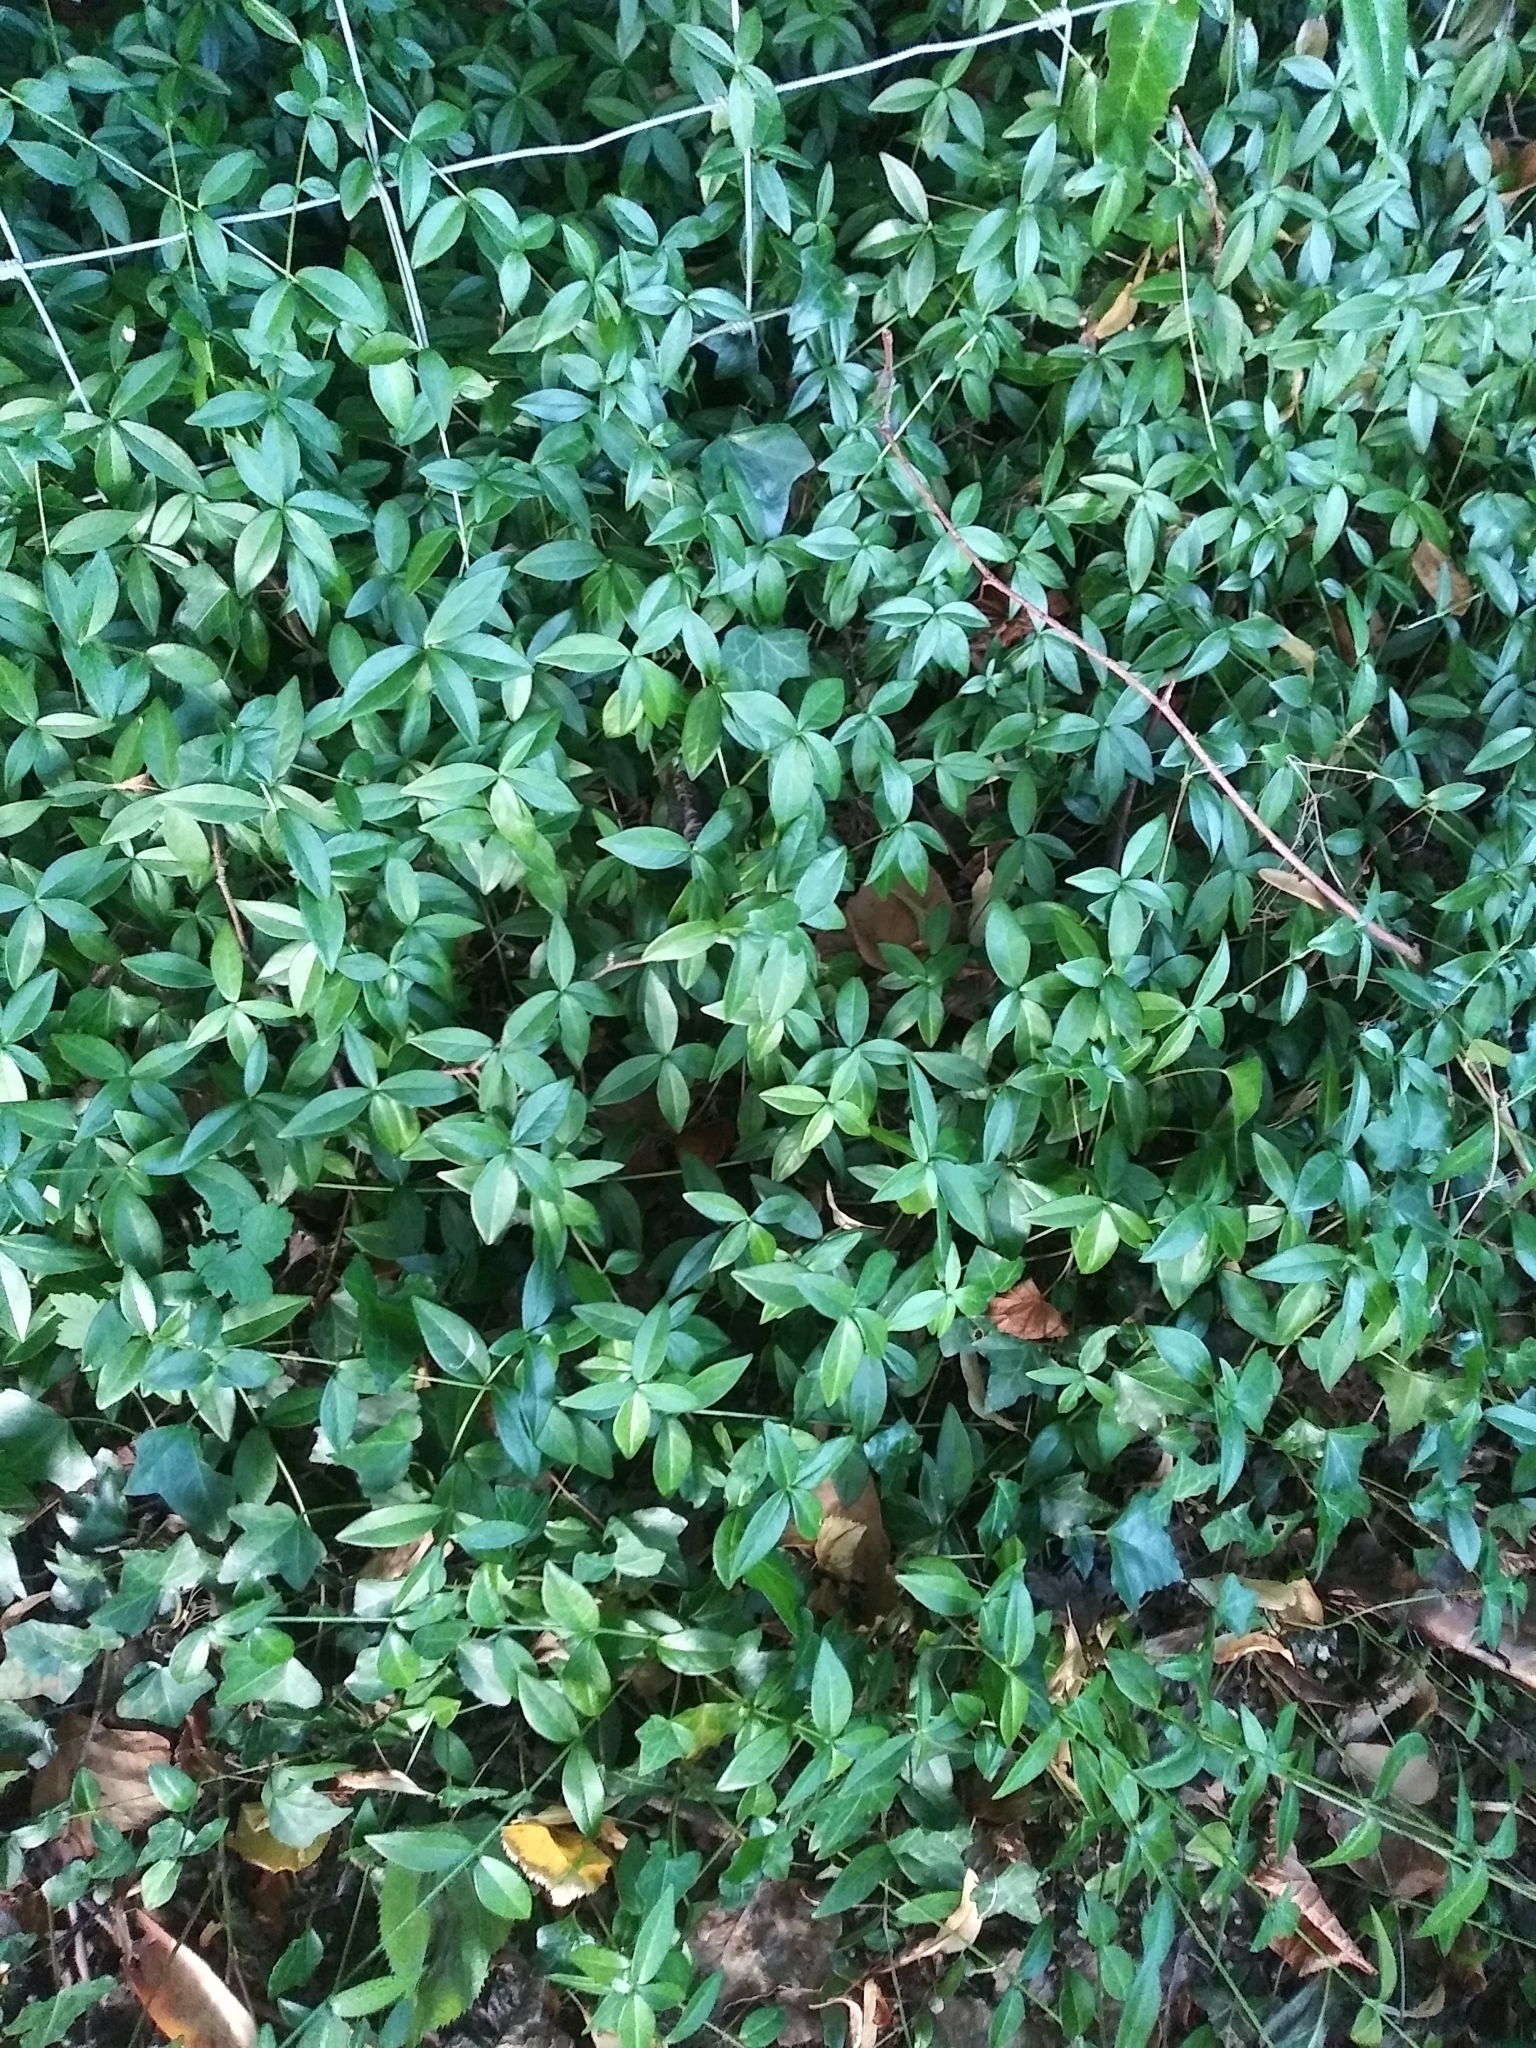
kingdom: Plantae
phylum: Tracheophyta
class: Magnoliopsida
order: Gentianales
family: Apocynaceae
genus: Vinca
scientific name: Vinca minor
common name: Lesser periwinkle
